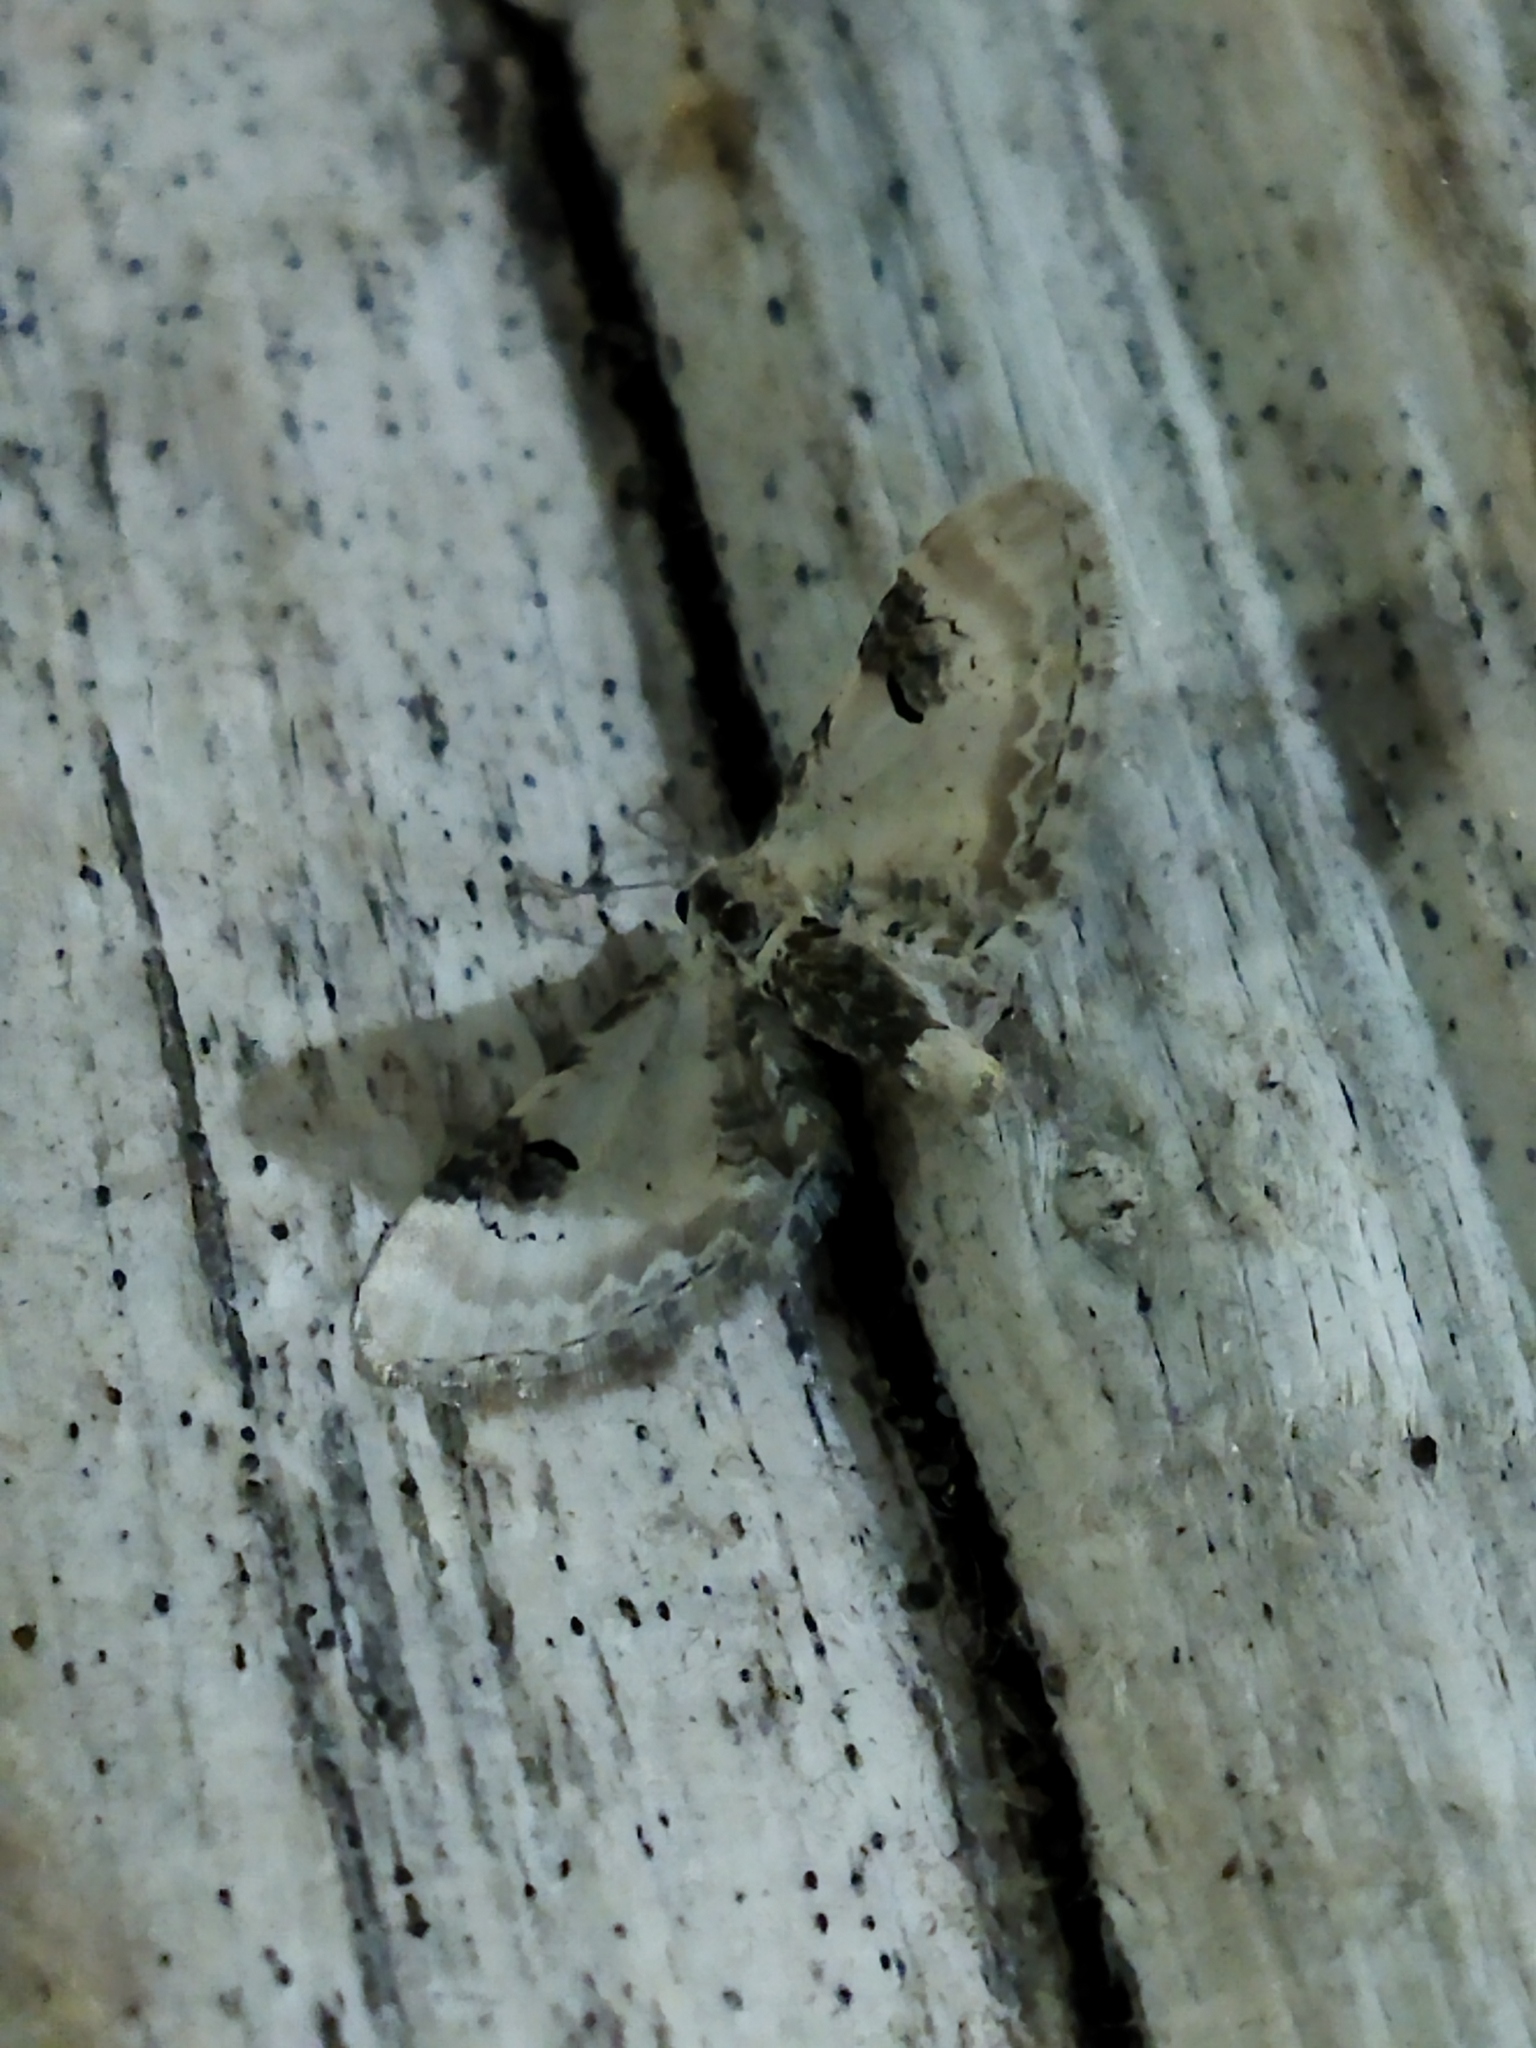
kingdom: Animalia
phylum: Arthropoda
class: Insecta
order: Lepidoptera
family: Geometridae
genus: Eupithecia
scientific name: Eupithecia centaureata
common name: Lime-speck pug
